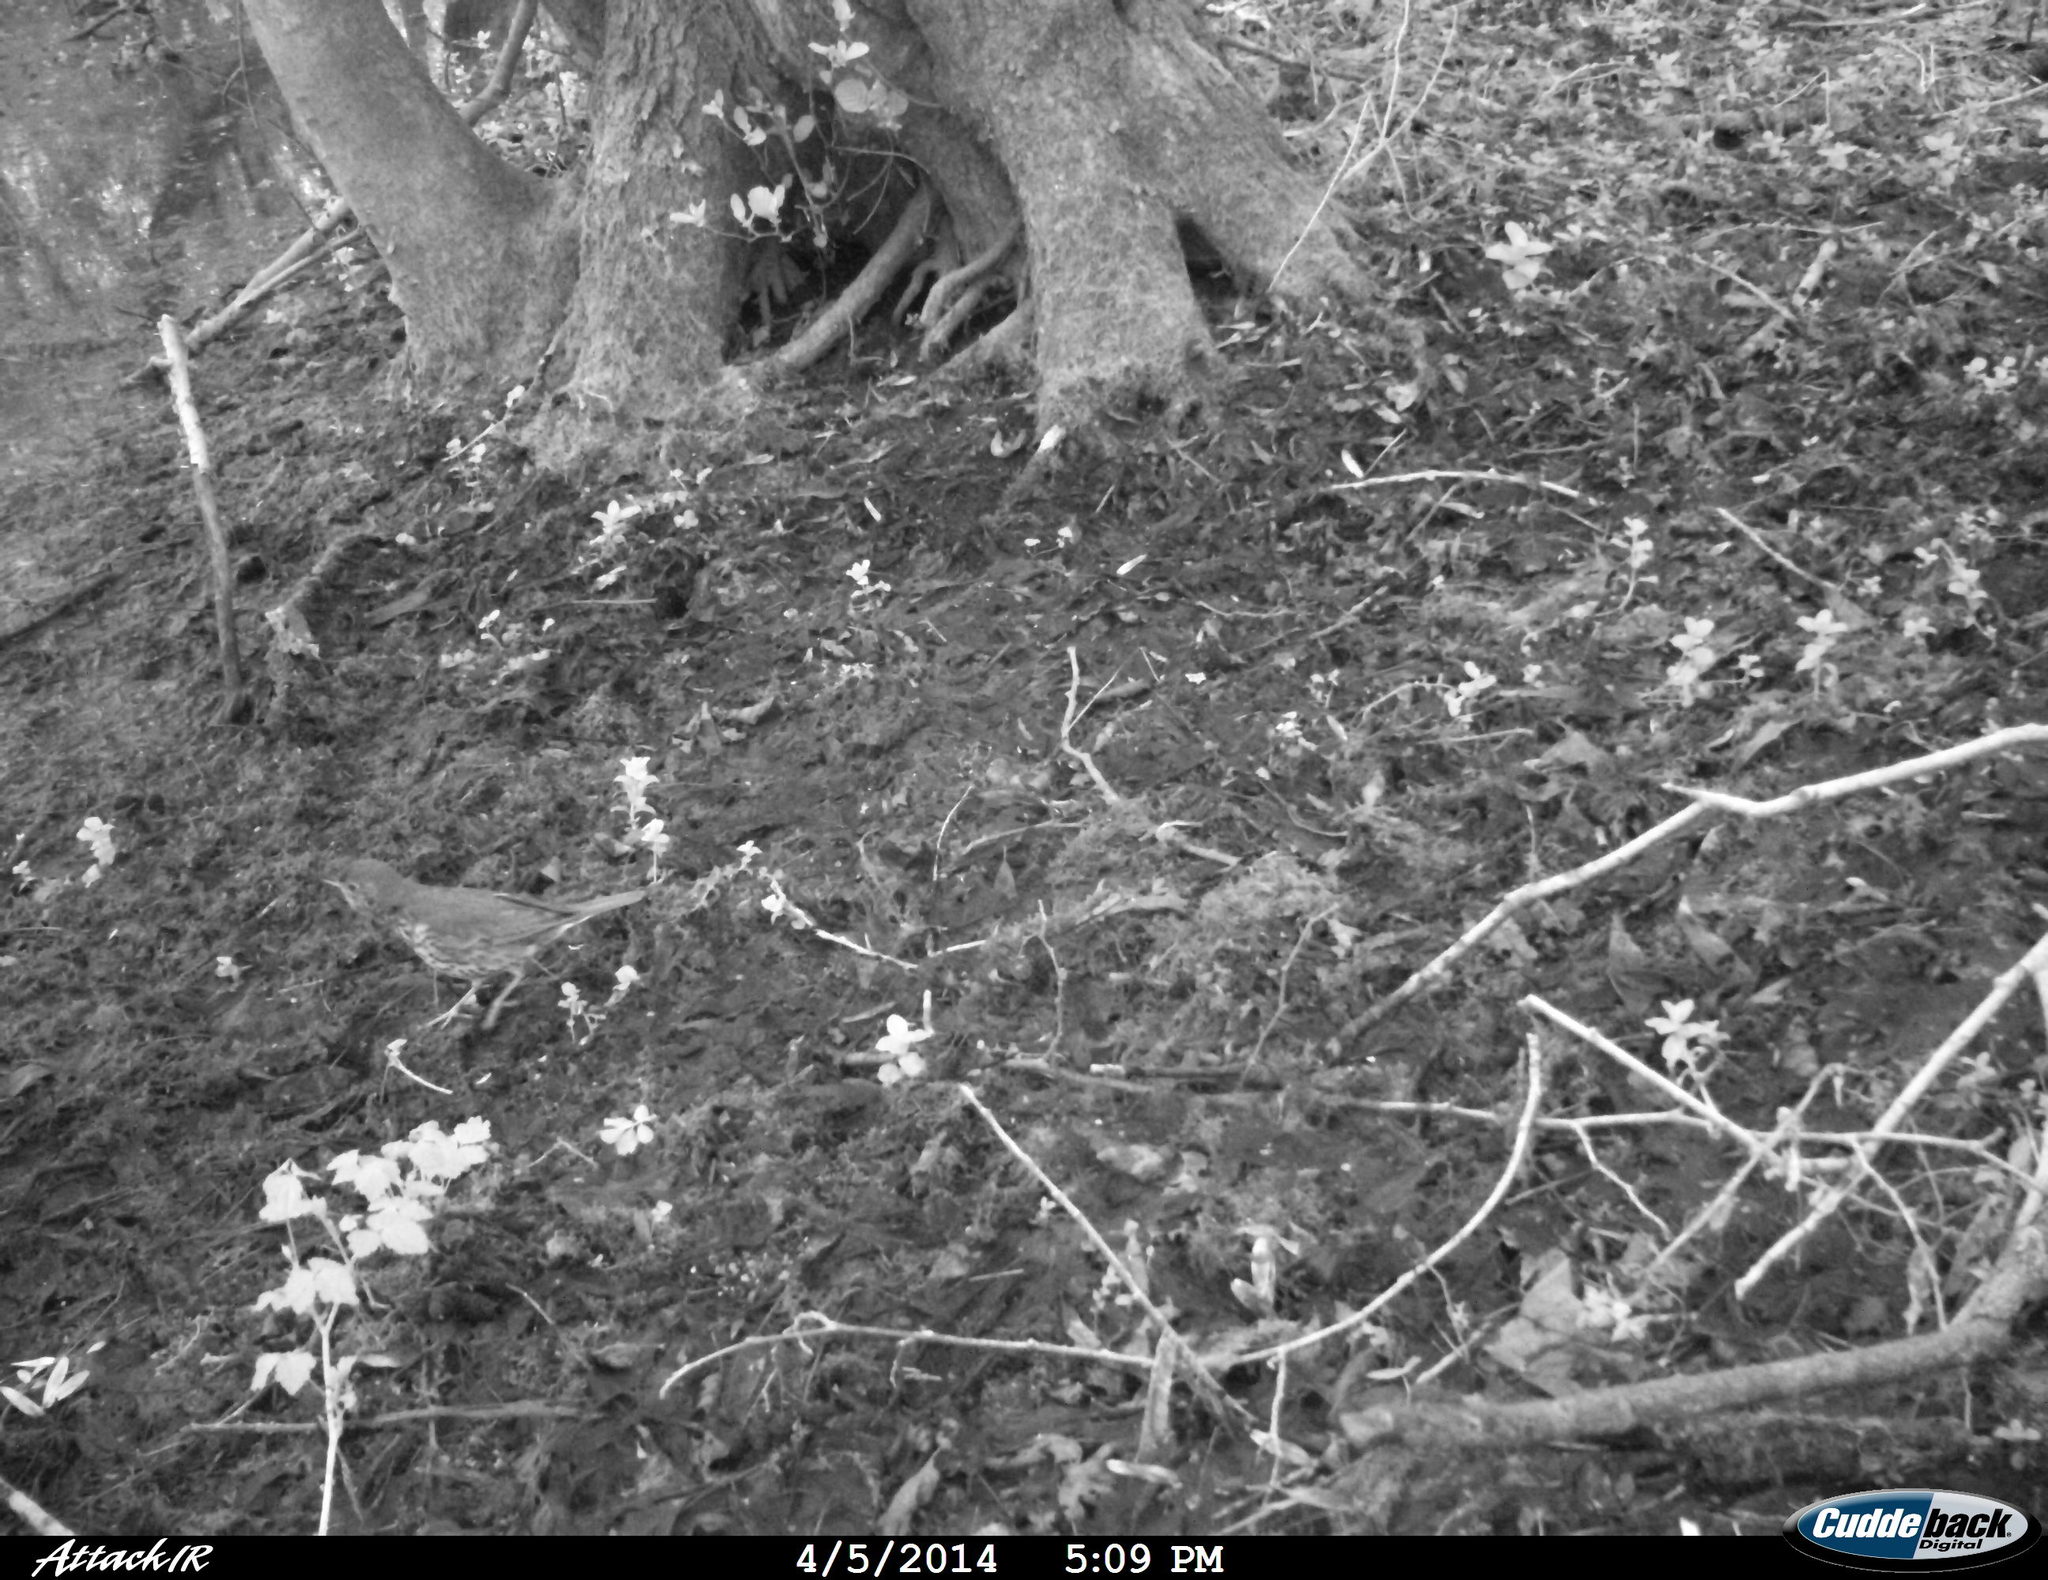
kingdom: Animalia
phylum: Chordata
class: Aves
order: Passeriformes
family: Turdidae
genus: Turdus
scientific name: Turdus philomelos
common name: Song thrush
